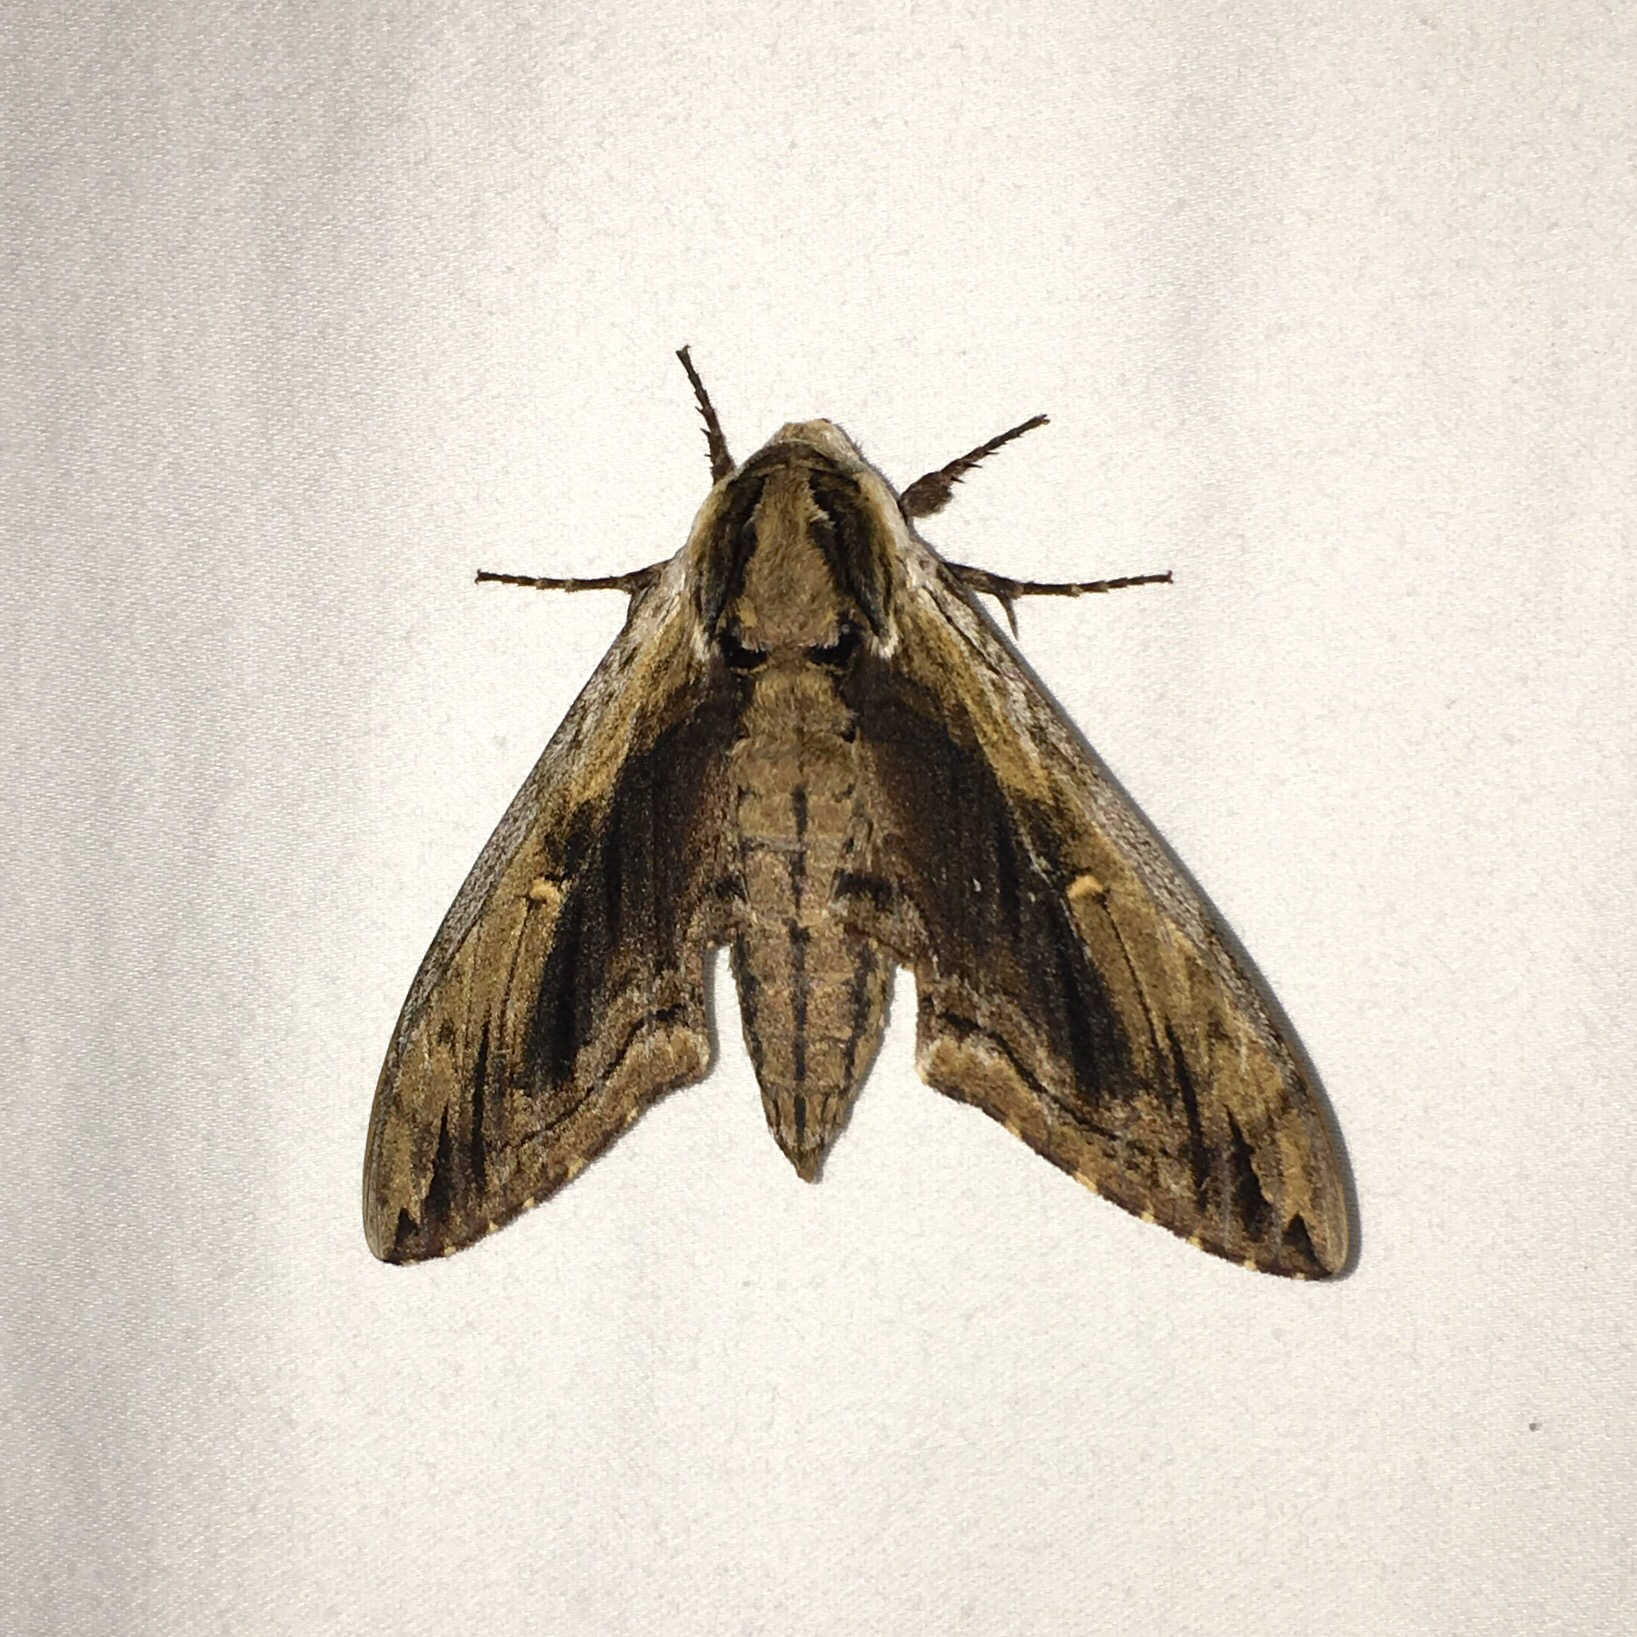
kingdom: Animalia
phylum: Arthropoda
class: Insecta
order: Lepidoptera
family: Sphingidae
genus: Ceratomia
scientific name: Ceratomia amyntor
